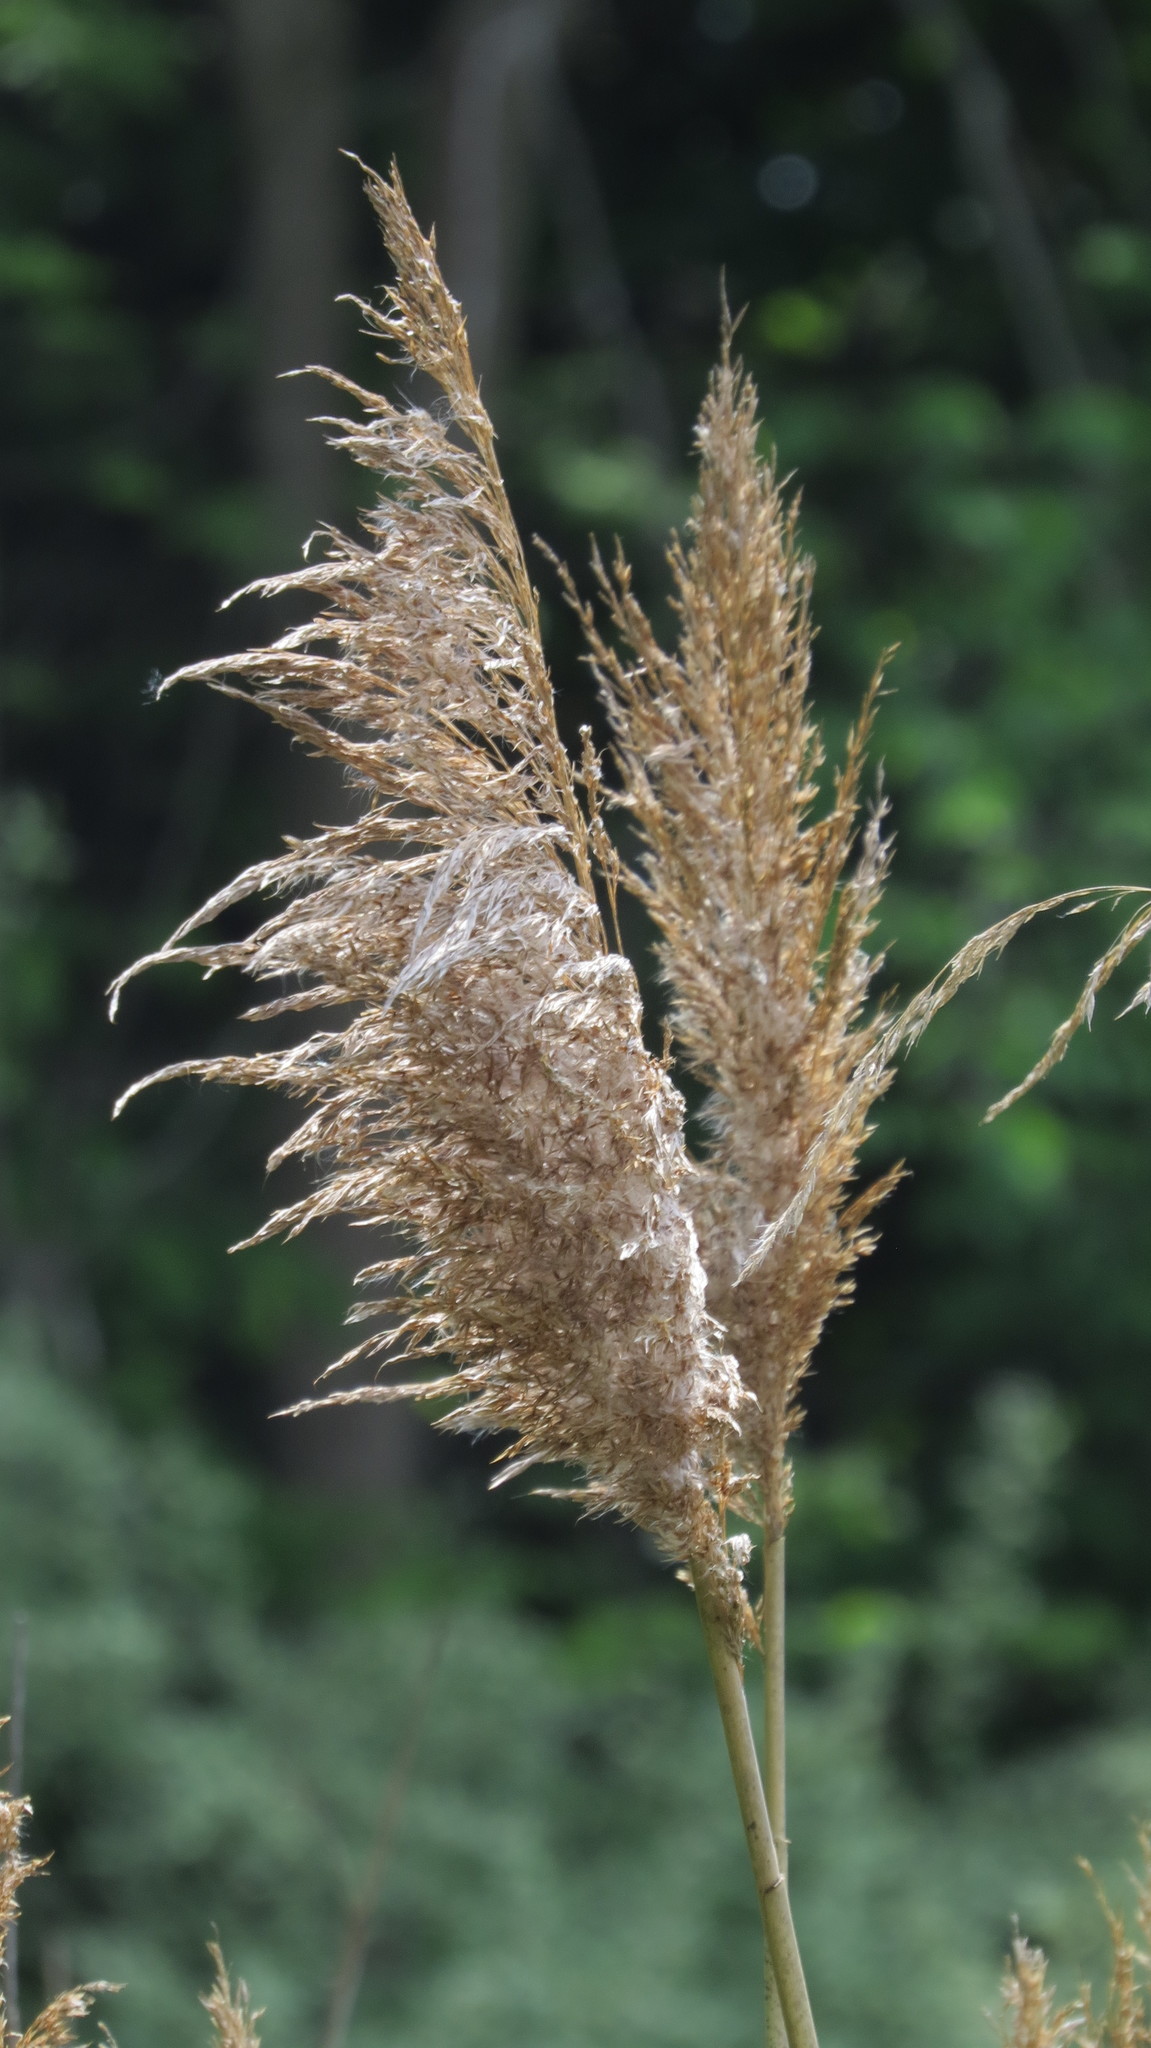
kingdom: Plantae
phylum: Tracheophyta
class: Liliopsida
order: Poales
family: Poaceae
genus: Phragmites
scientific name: Phragmites australis
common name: Common reed
